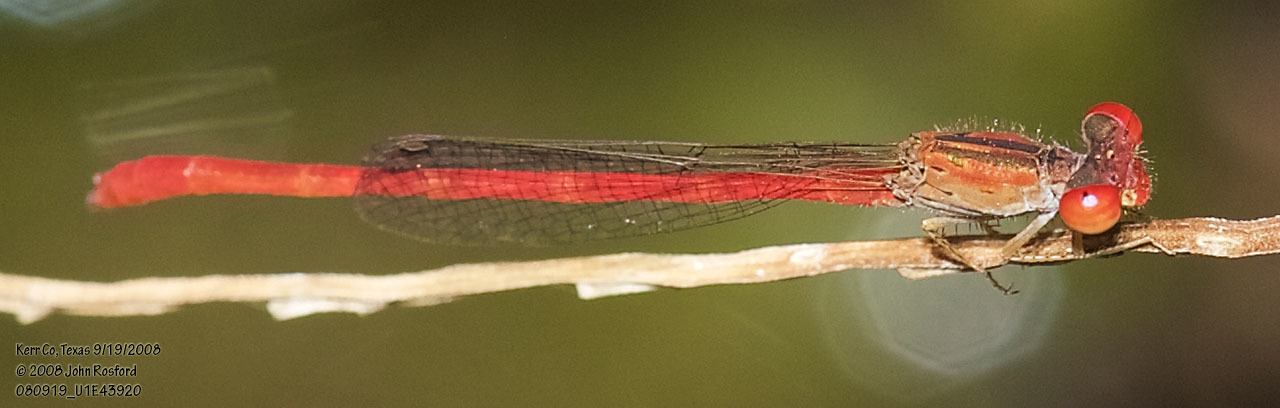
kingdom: Animalia
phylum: Arthropoda
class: Insecta
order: Odonata
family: Coenagrionidae
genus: Telebasis
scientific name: Telebasis salva
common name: Desert firetail
